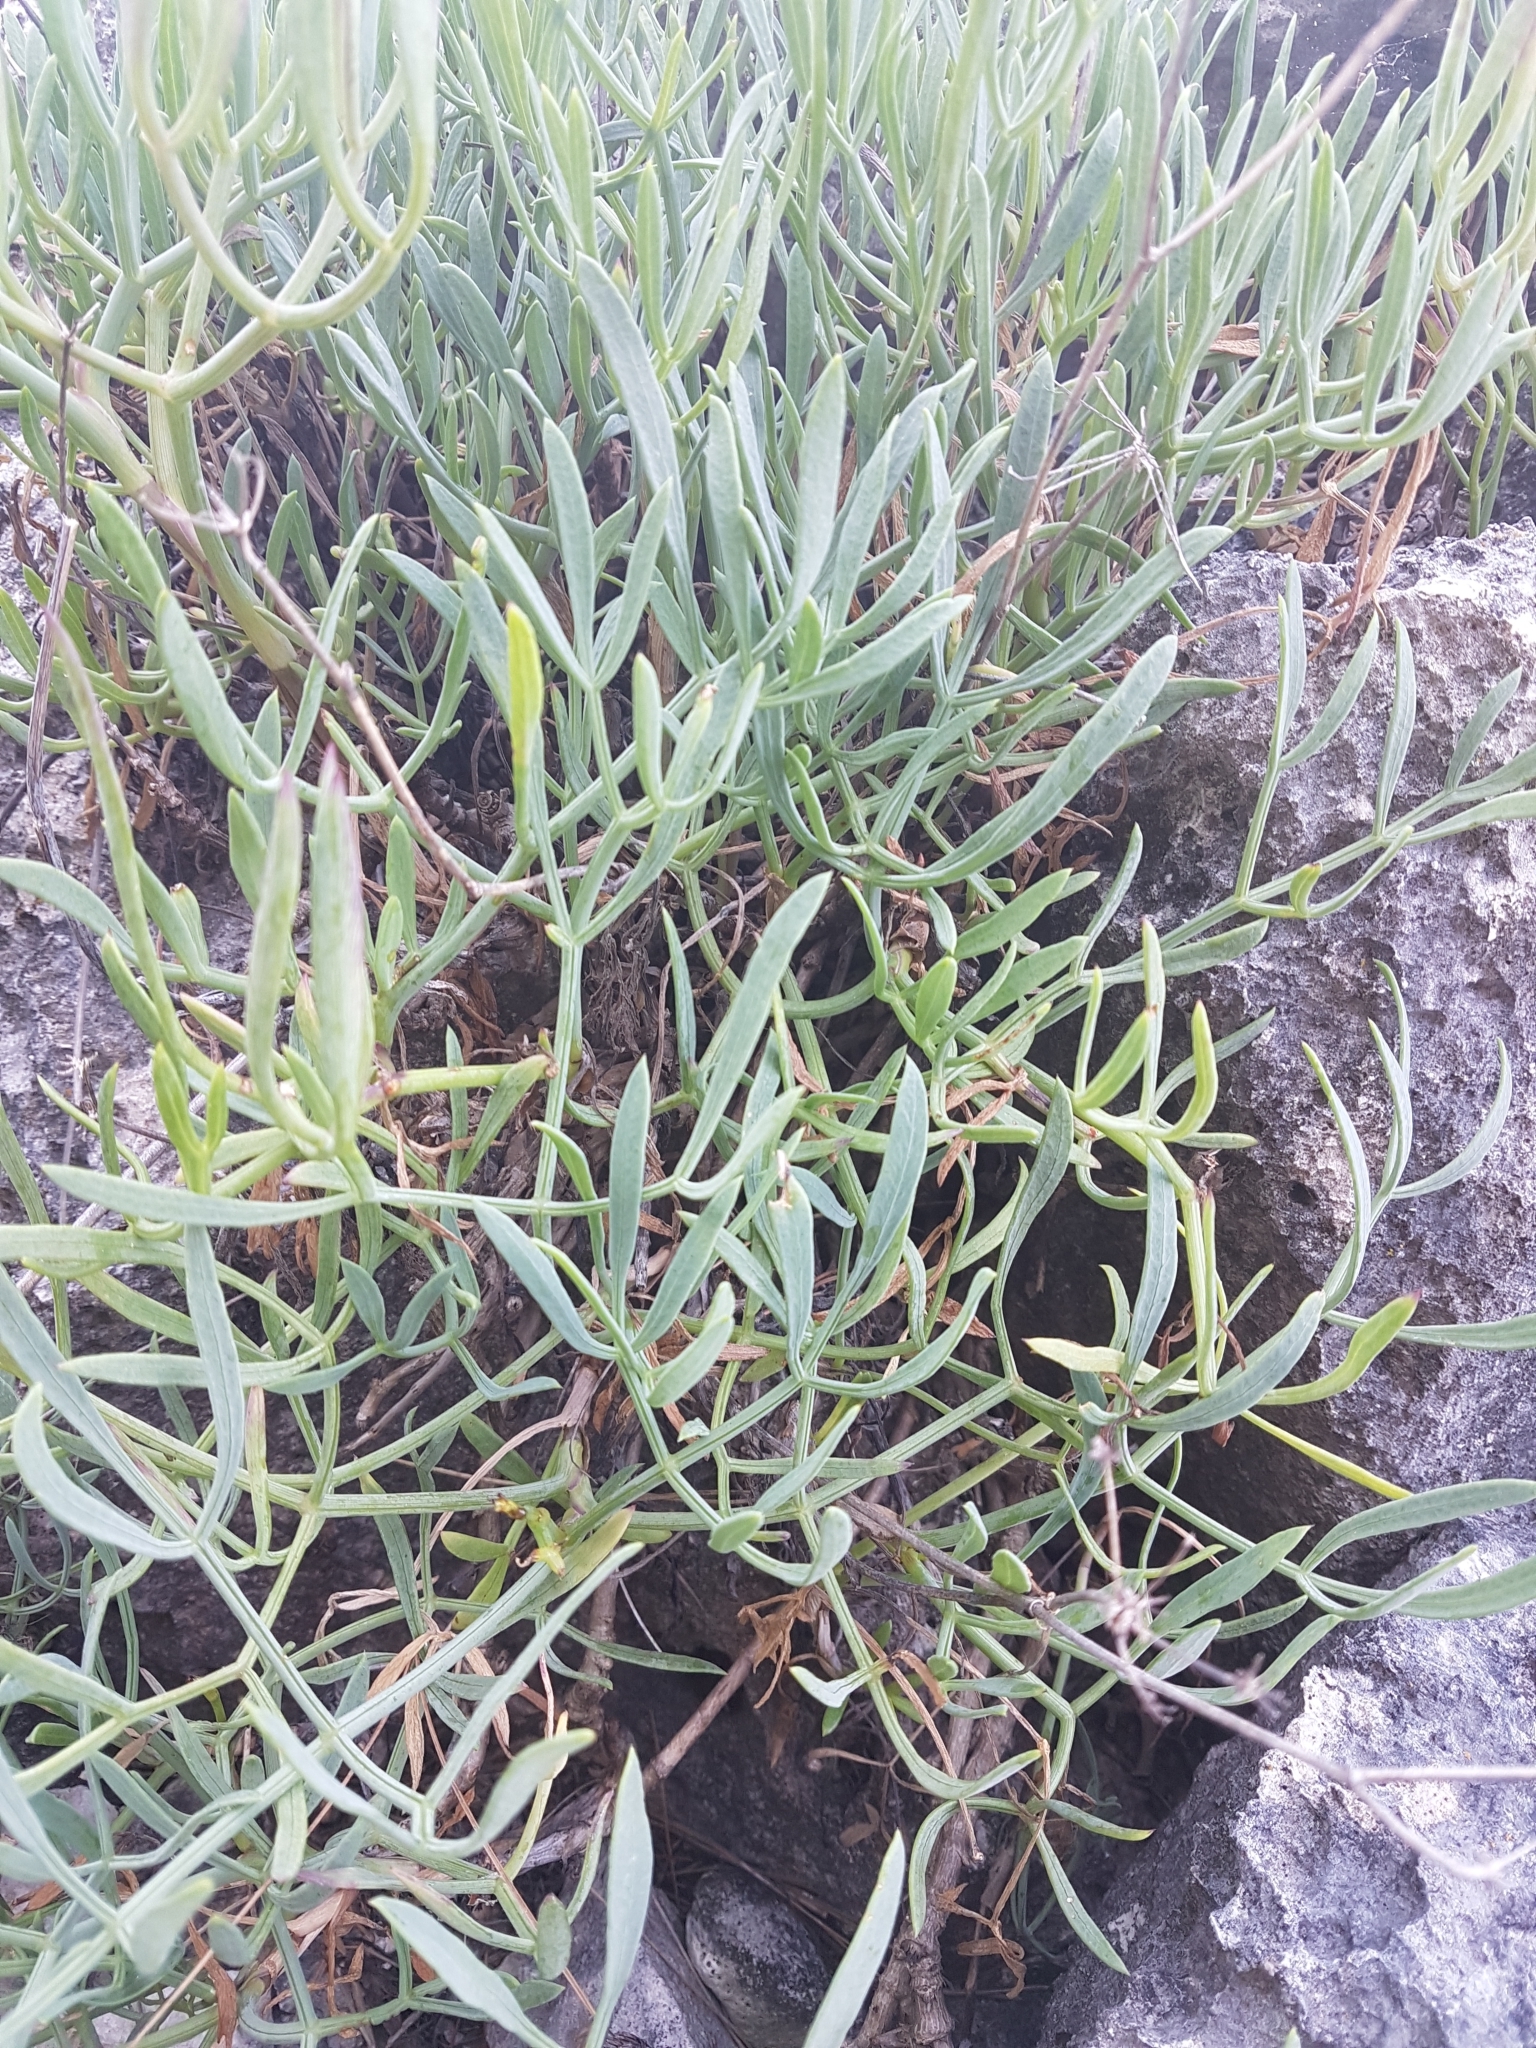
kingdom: Plantae
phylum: Tracheophyta
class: Magnoliopsida
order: Apiales
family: Apiaceae
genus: Crithmum
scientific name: Crithmum maritimum
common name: Rock samphire
